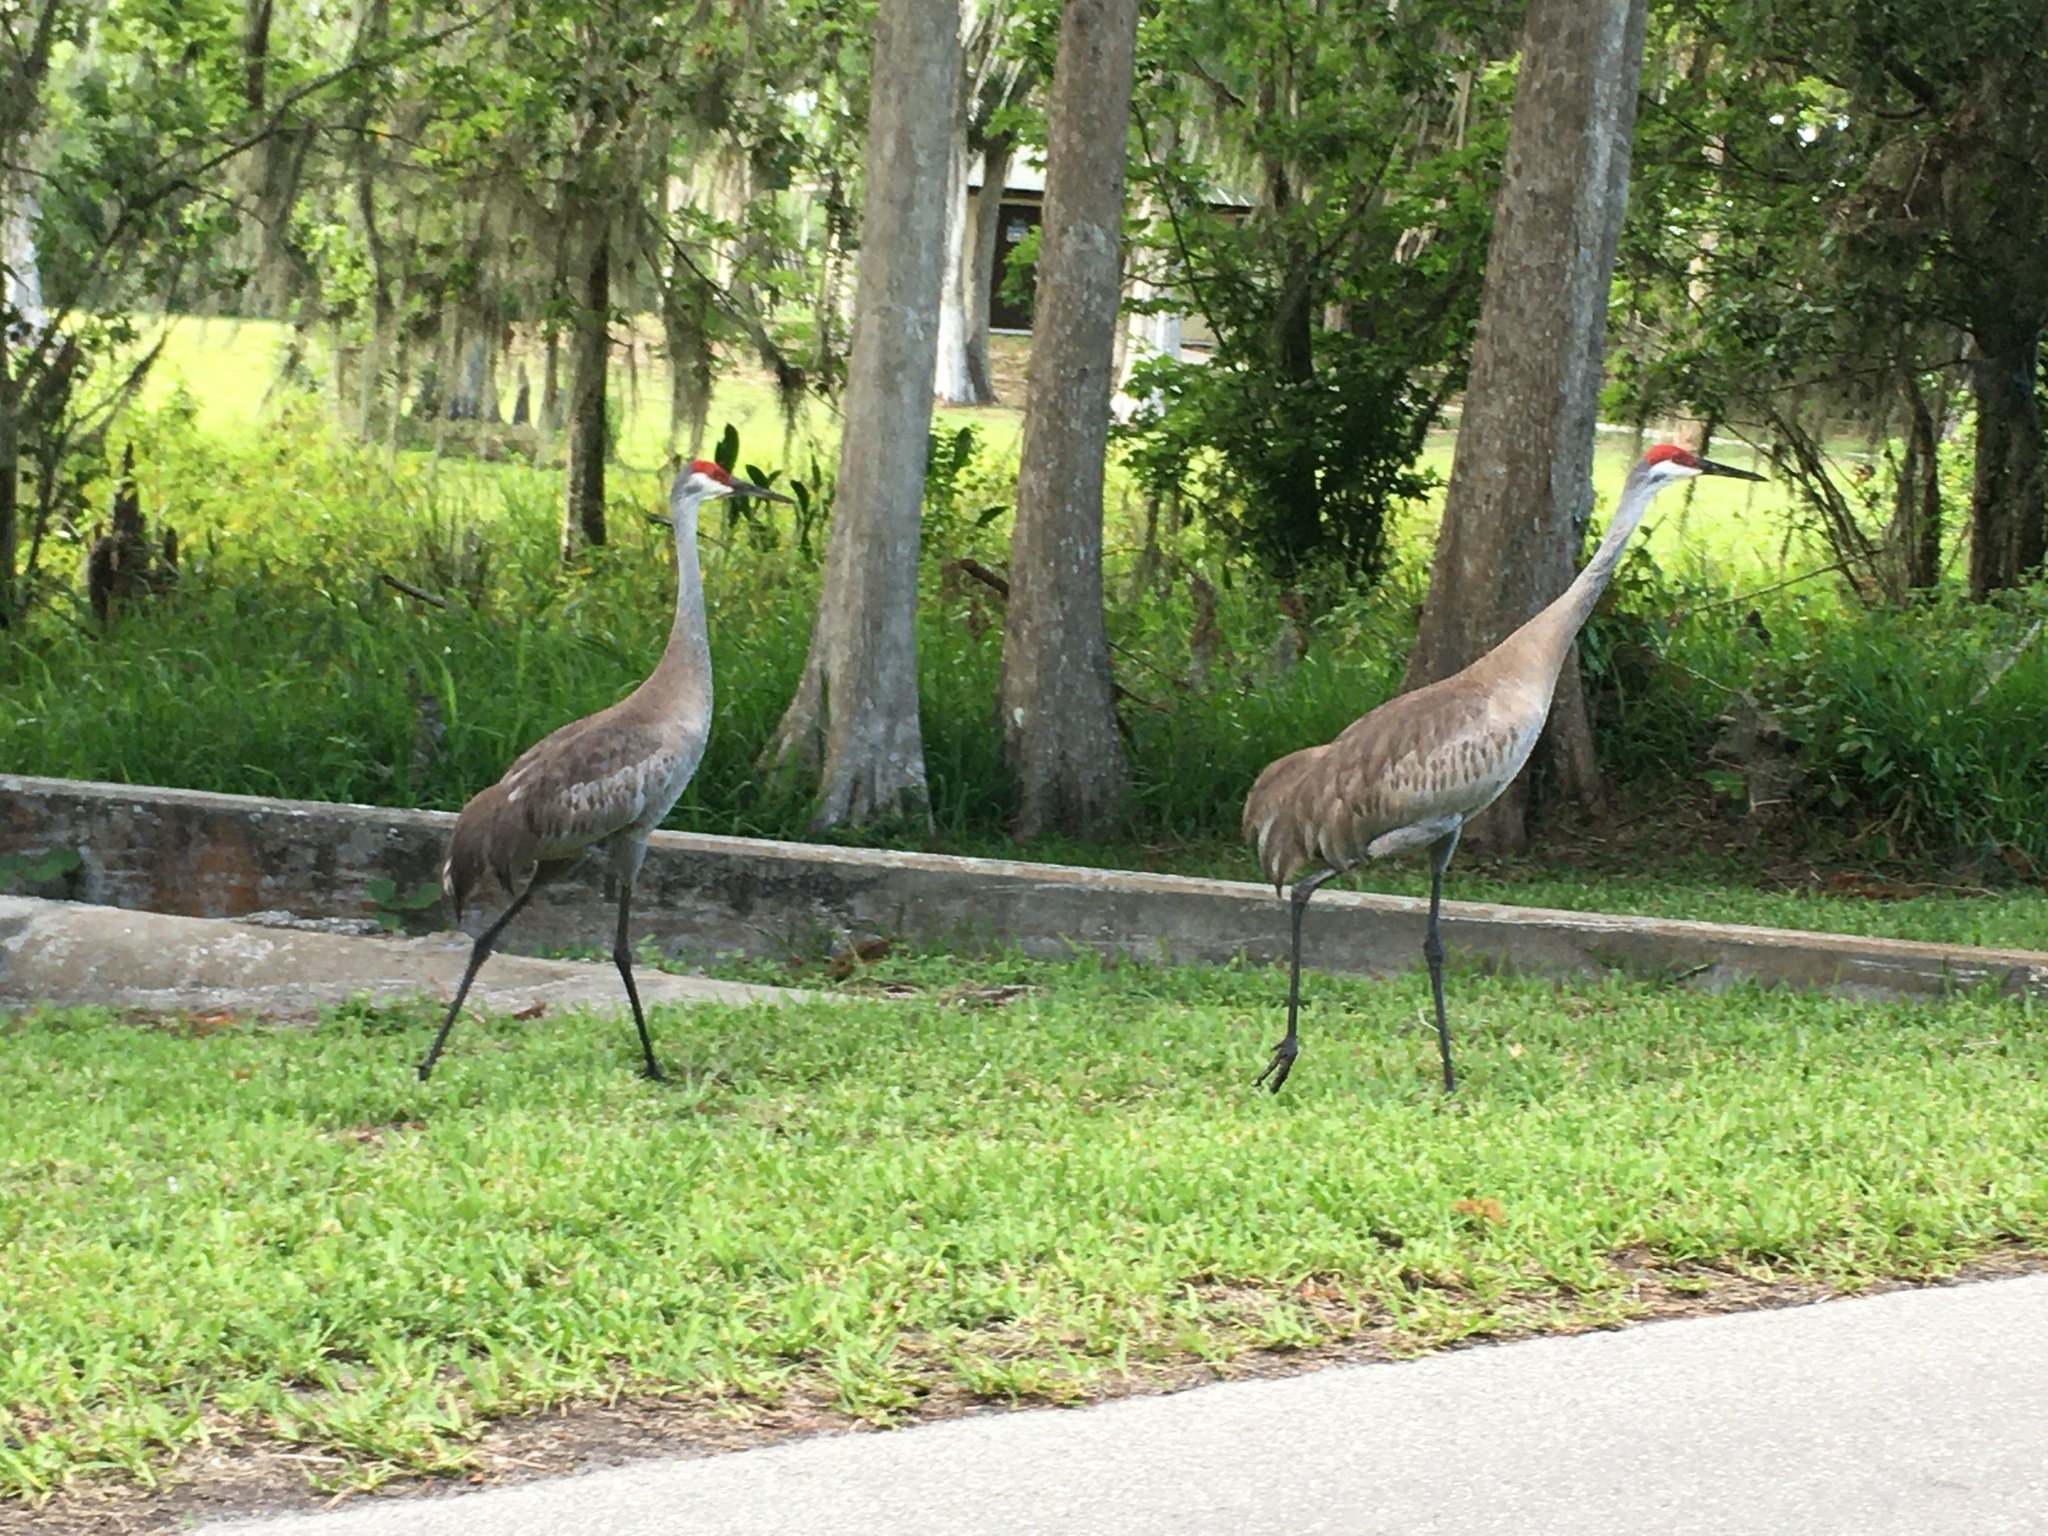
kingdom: Animalia
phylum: Chordata
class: Aves
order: Gruiformes
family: Gruidae
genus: Grus
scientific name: Grus canadensis
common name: Sandhill crane
